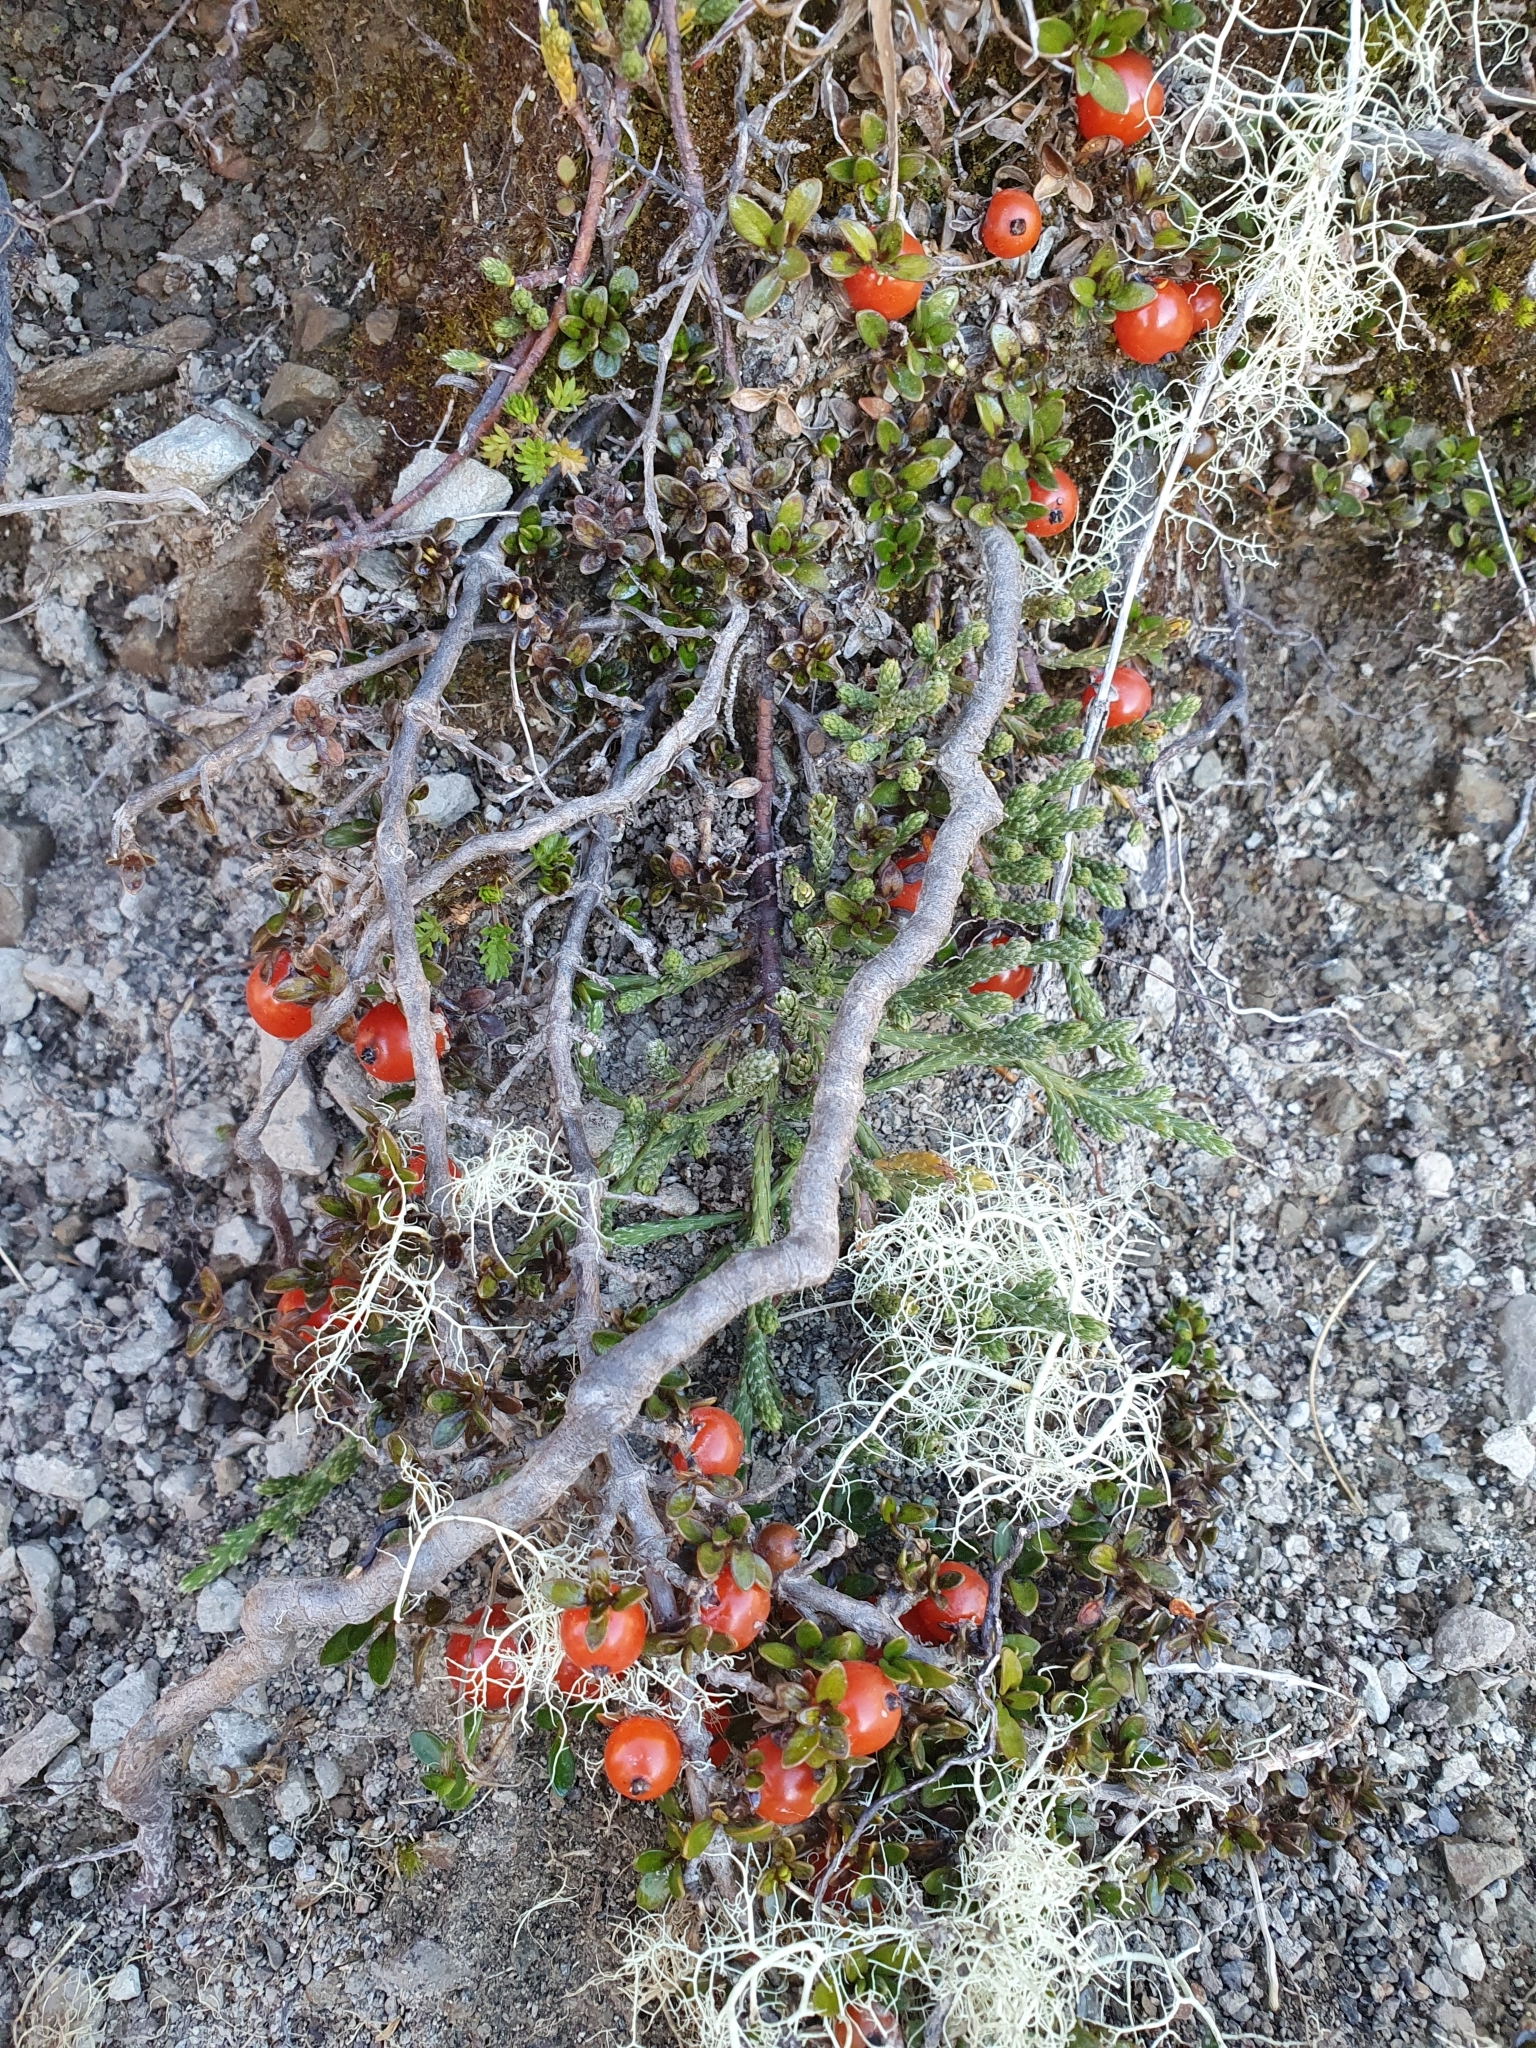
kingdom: Plantae
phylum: Tracheophyta
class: Magnoliopsida
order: Gentianales
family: Rubiaceae
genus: Coprosma
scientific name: Coprosma perpusilla
